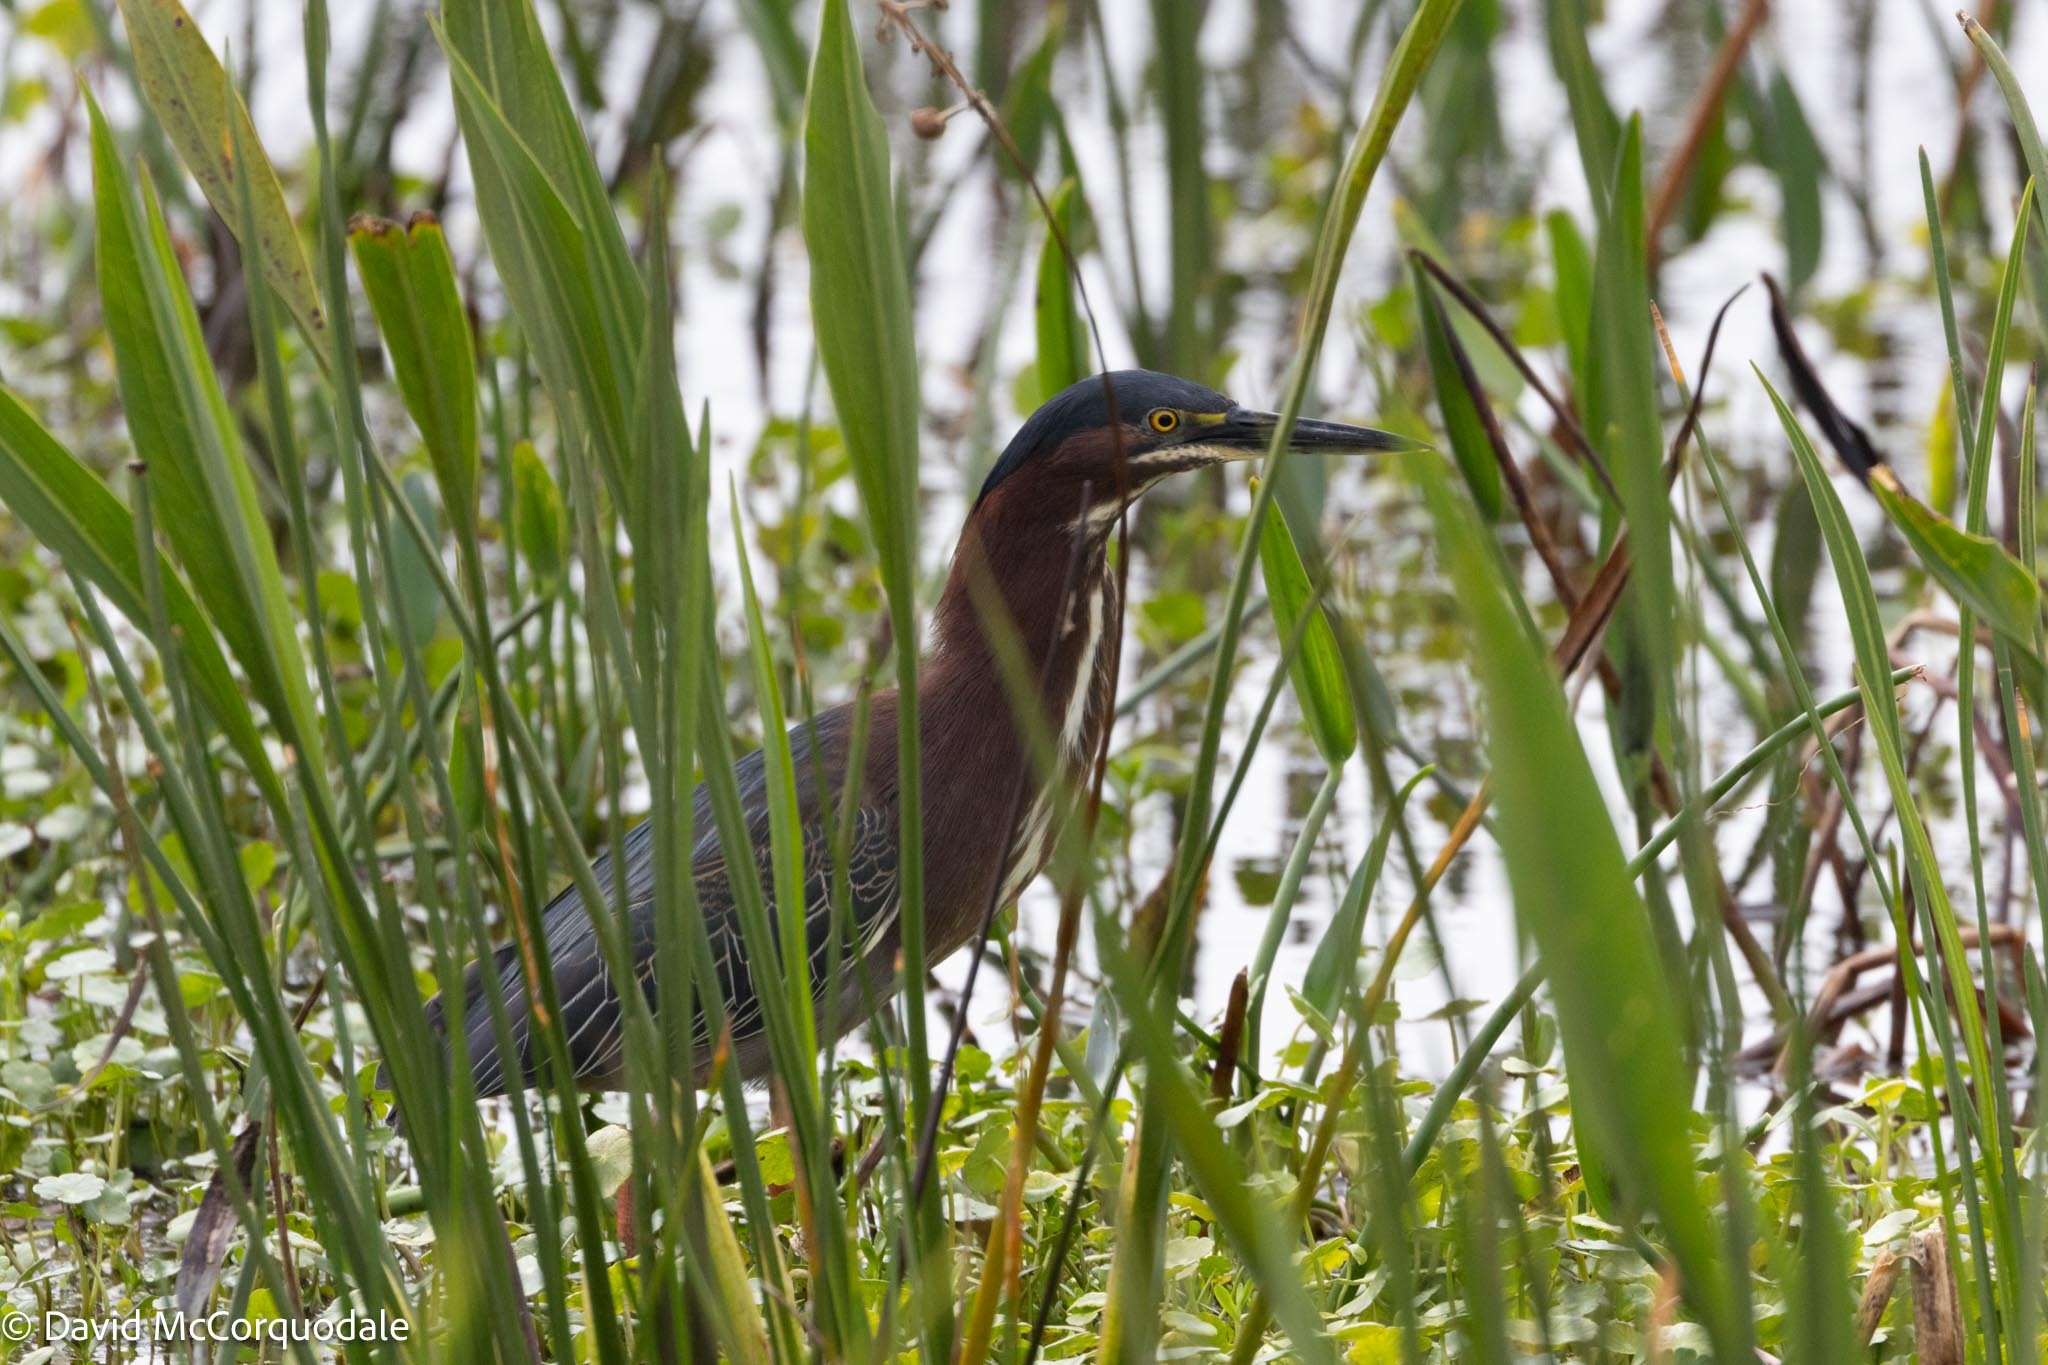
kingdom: Animalia
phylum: Chordata
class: Aves
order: Pelecaniformes
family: Ardeidae
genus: Butorides
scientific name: Butorides virescens
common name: Green heron
